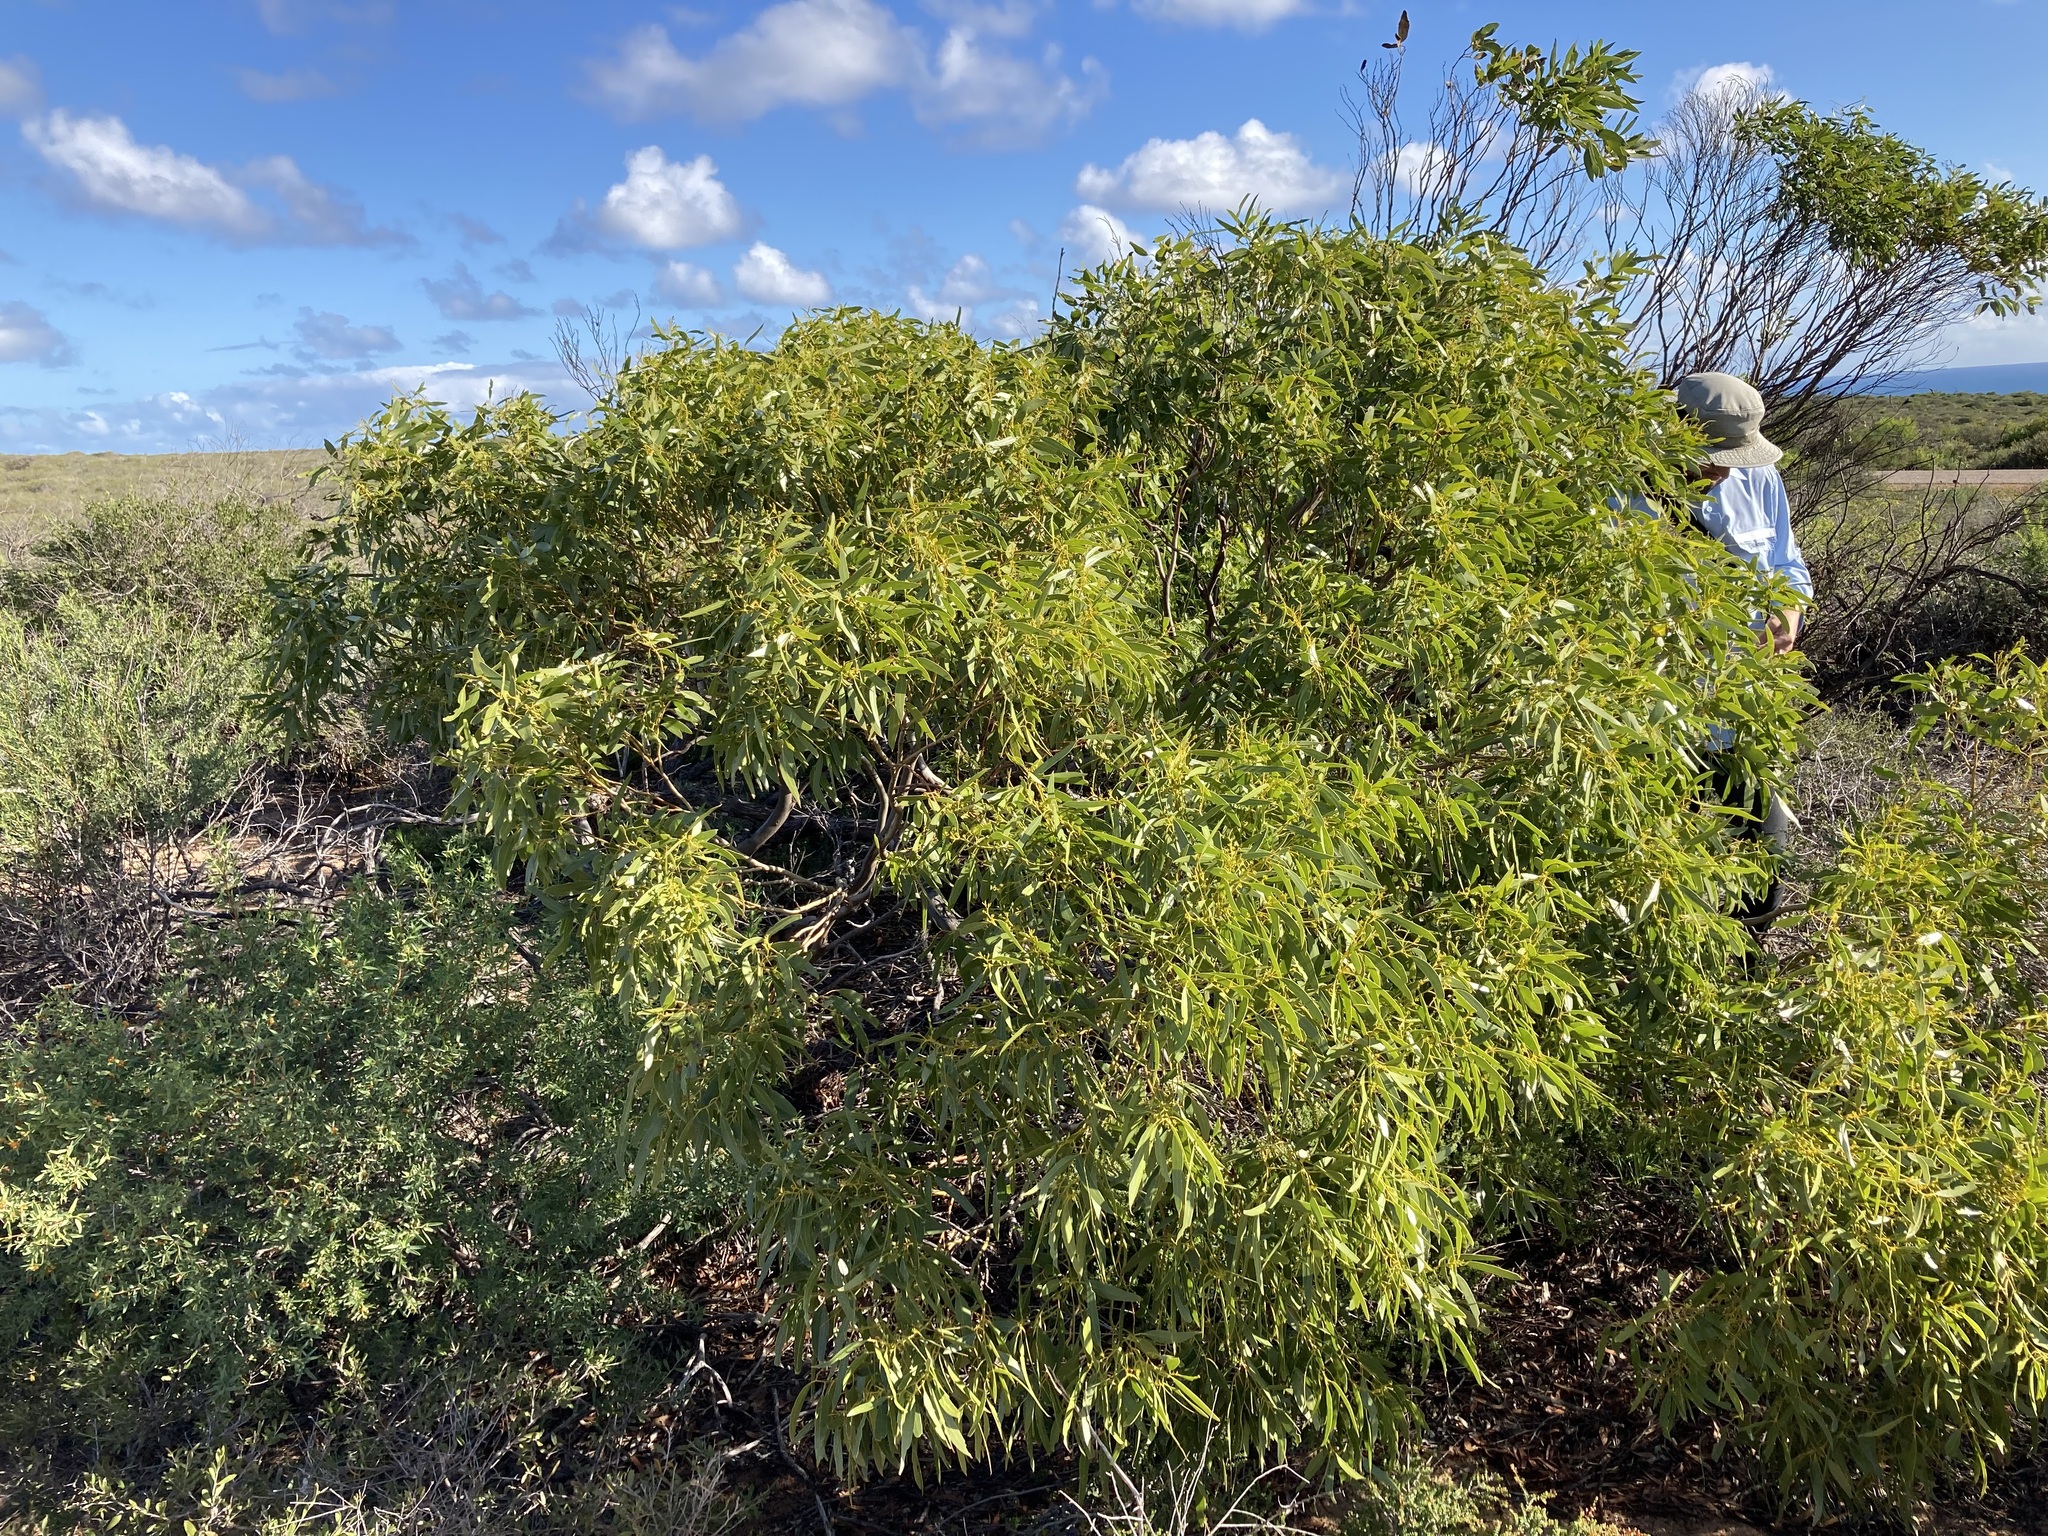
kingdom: Plantae
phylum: Tracheophyta
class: Magnoliopsida
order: Myrtales
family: Myrtaceae
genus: Eucalyptus
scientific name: Eucalyptus oraria
